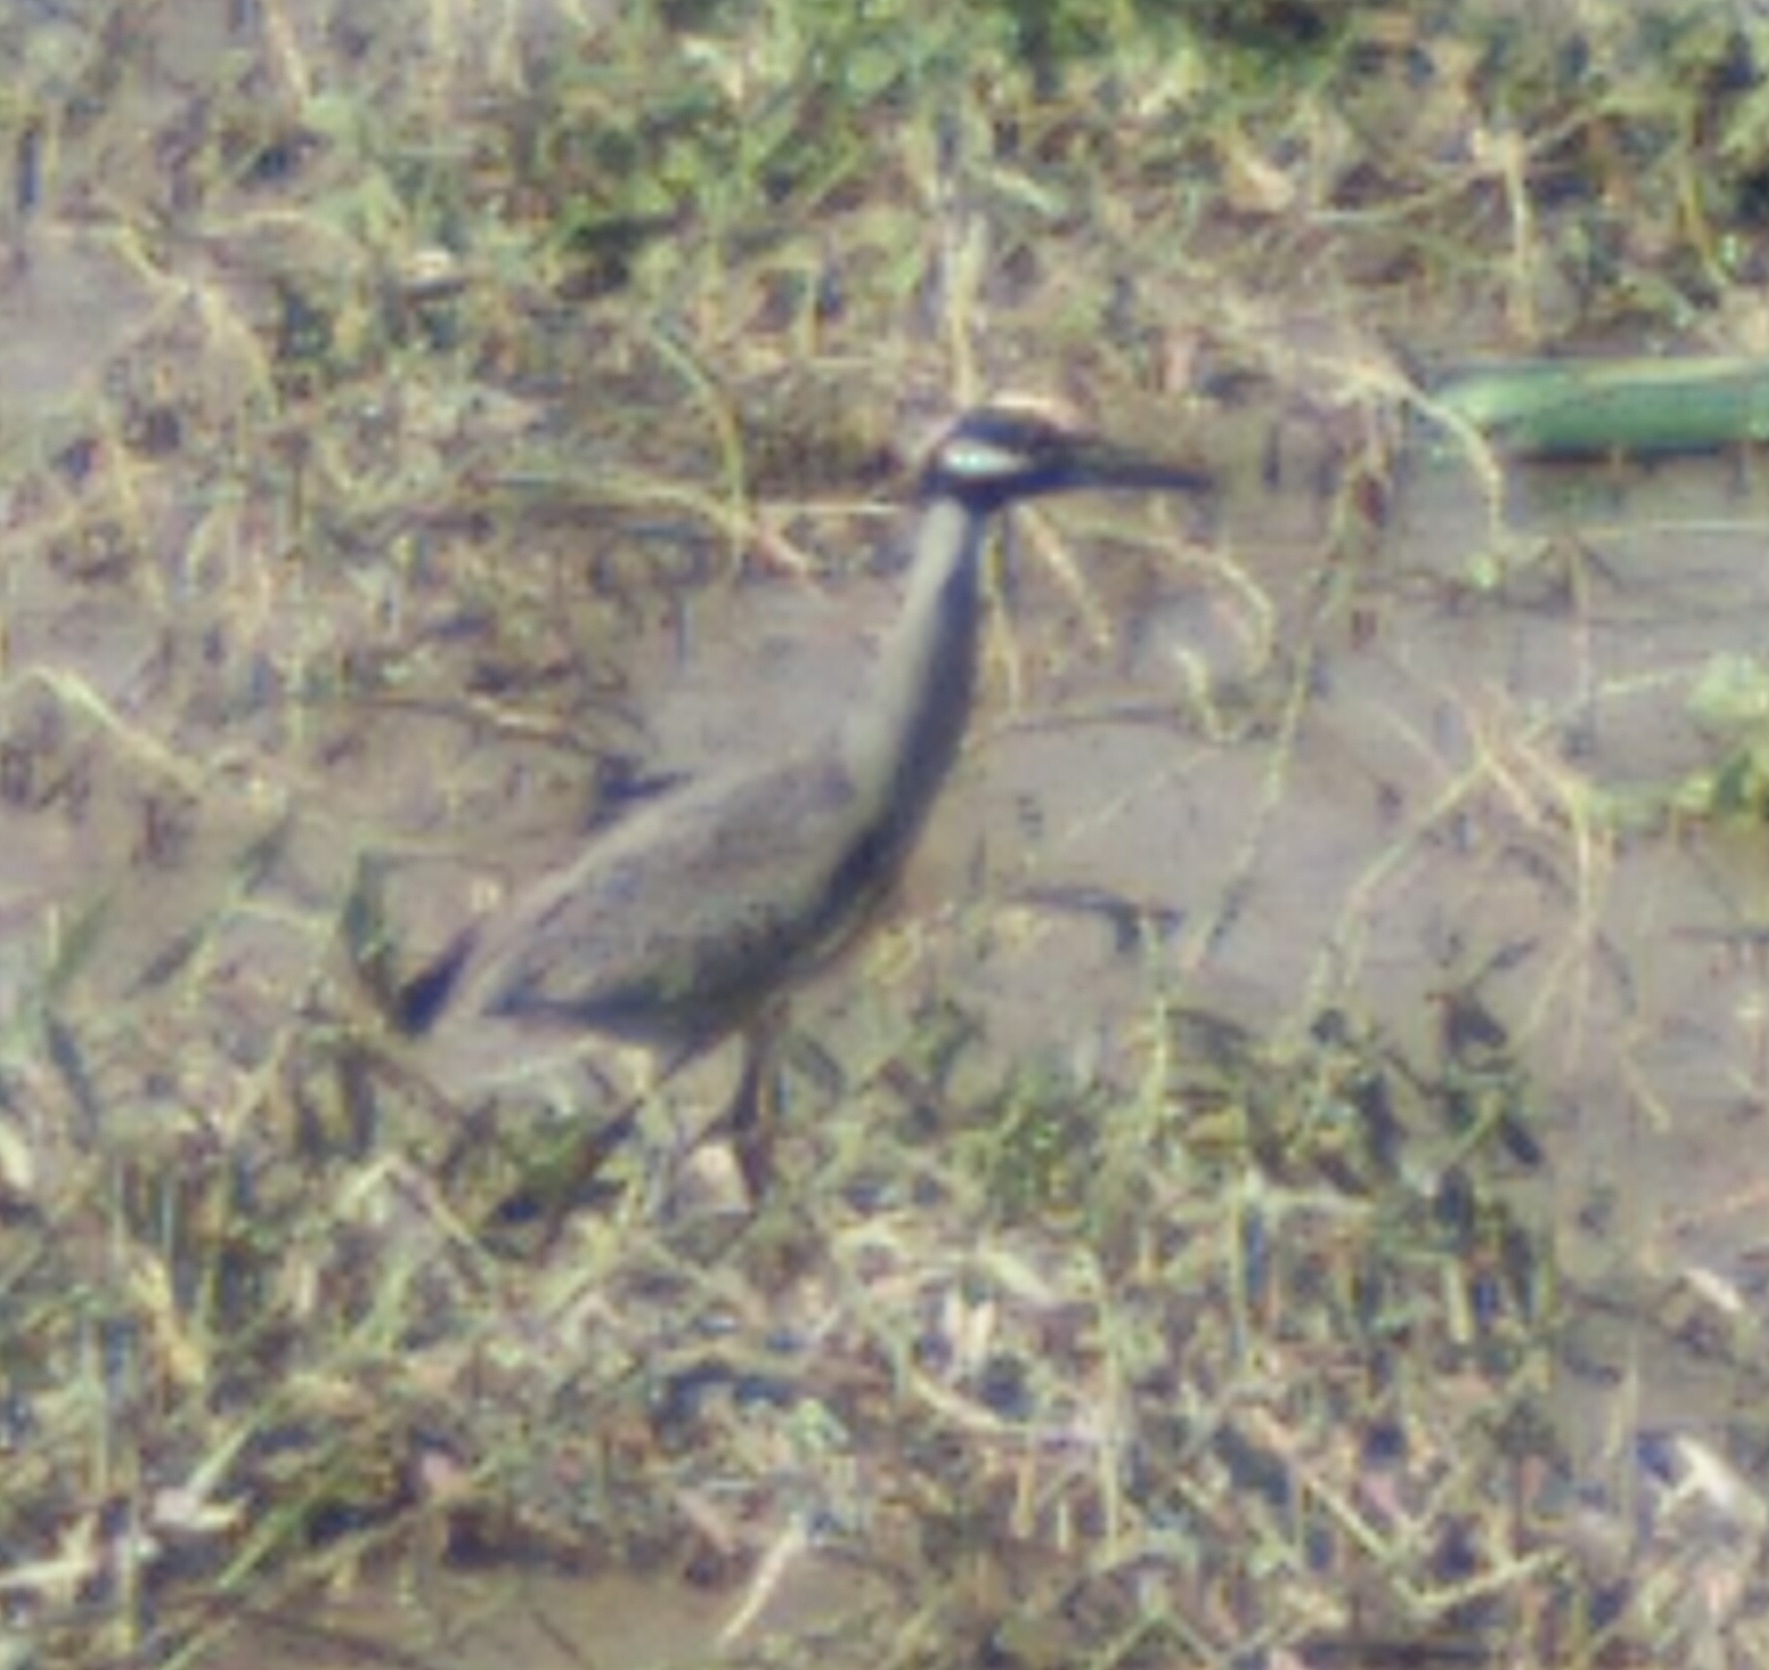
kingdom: Animalia
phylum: Chordata
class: Aves
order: Pelecaniformes
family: Ardeidae
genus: Nyctanassa
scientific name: Nyctanassa violacea
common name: Yellow-crowned night heron
